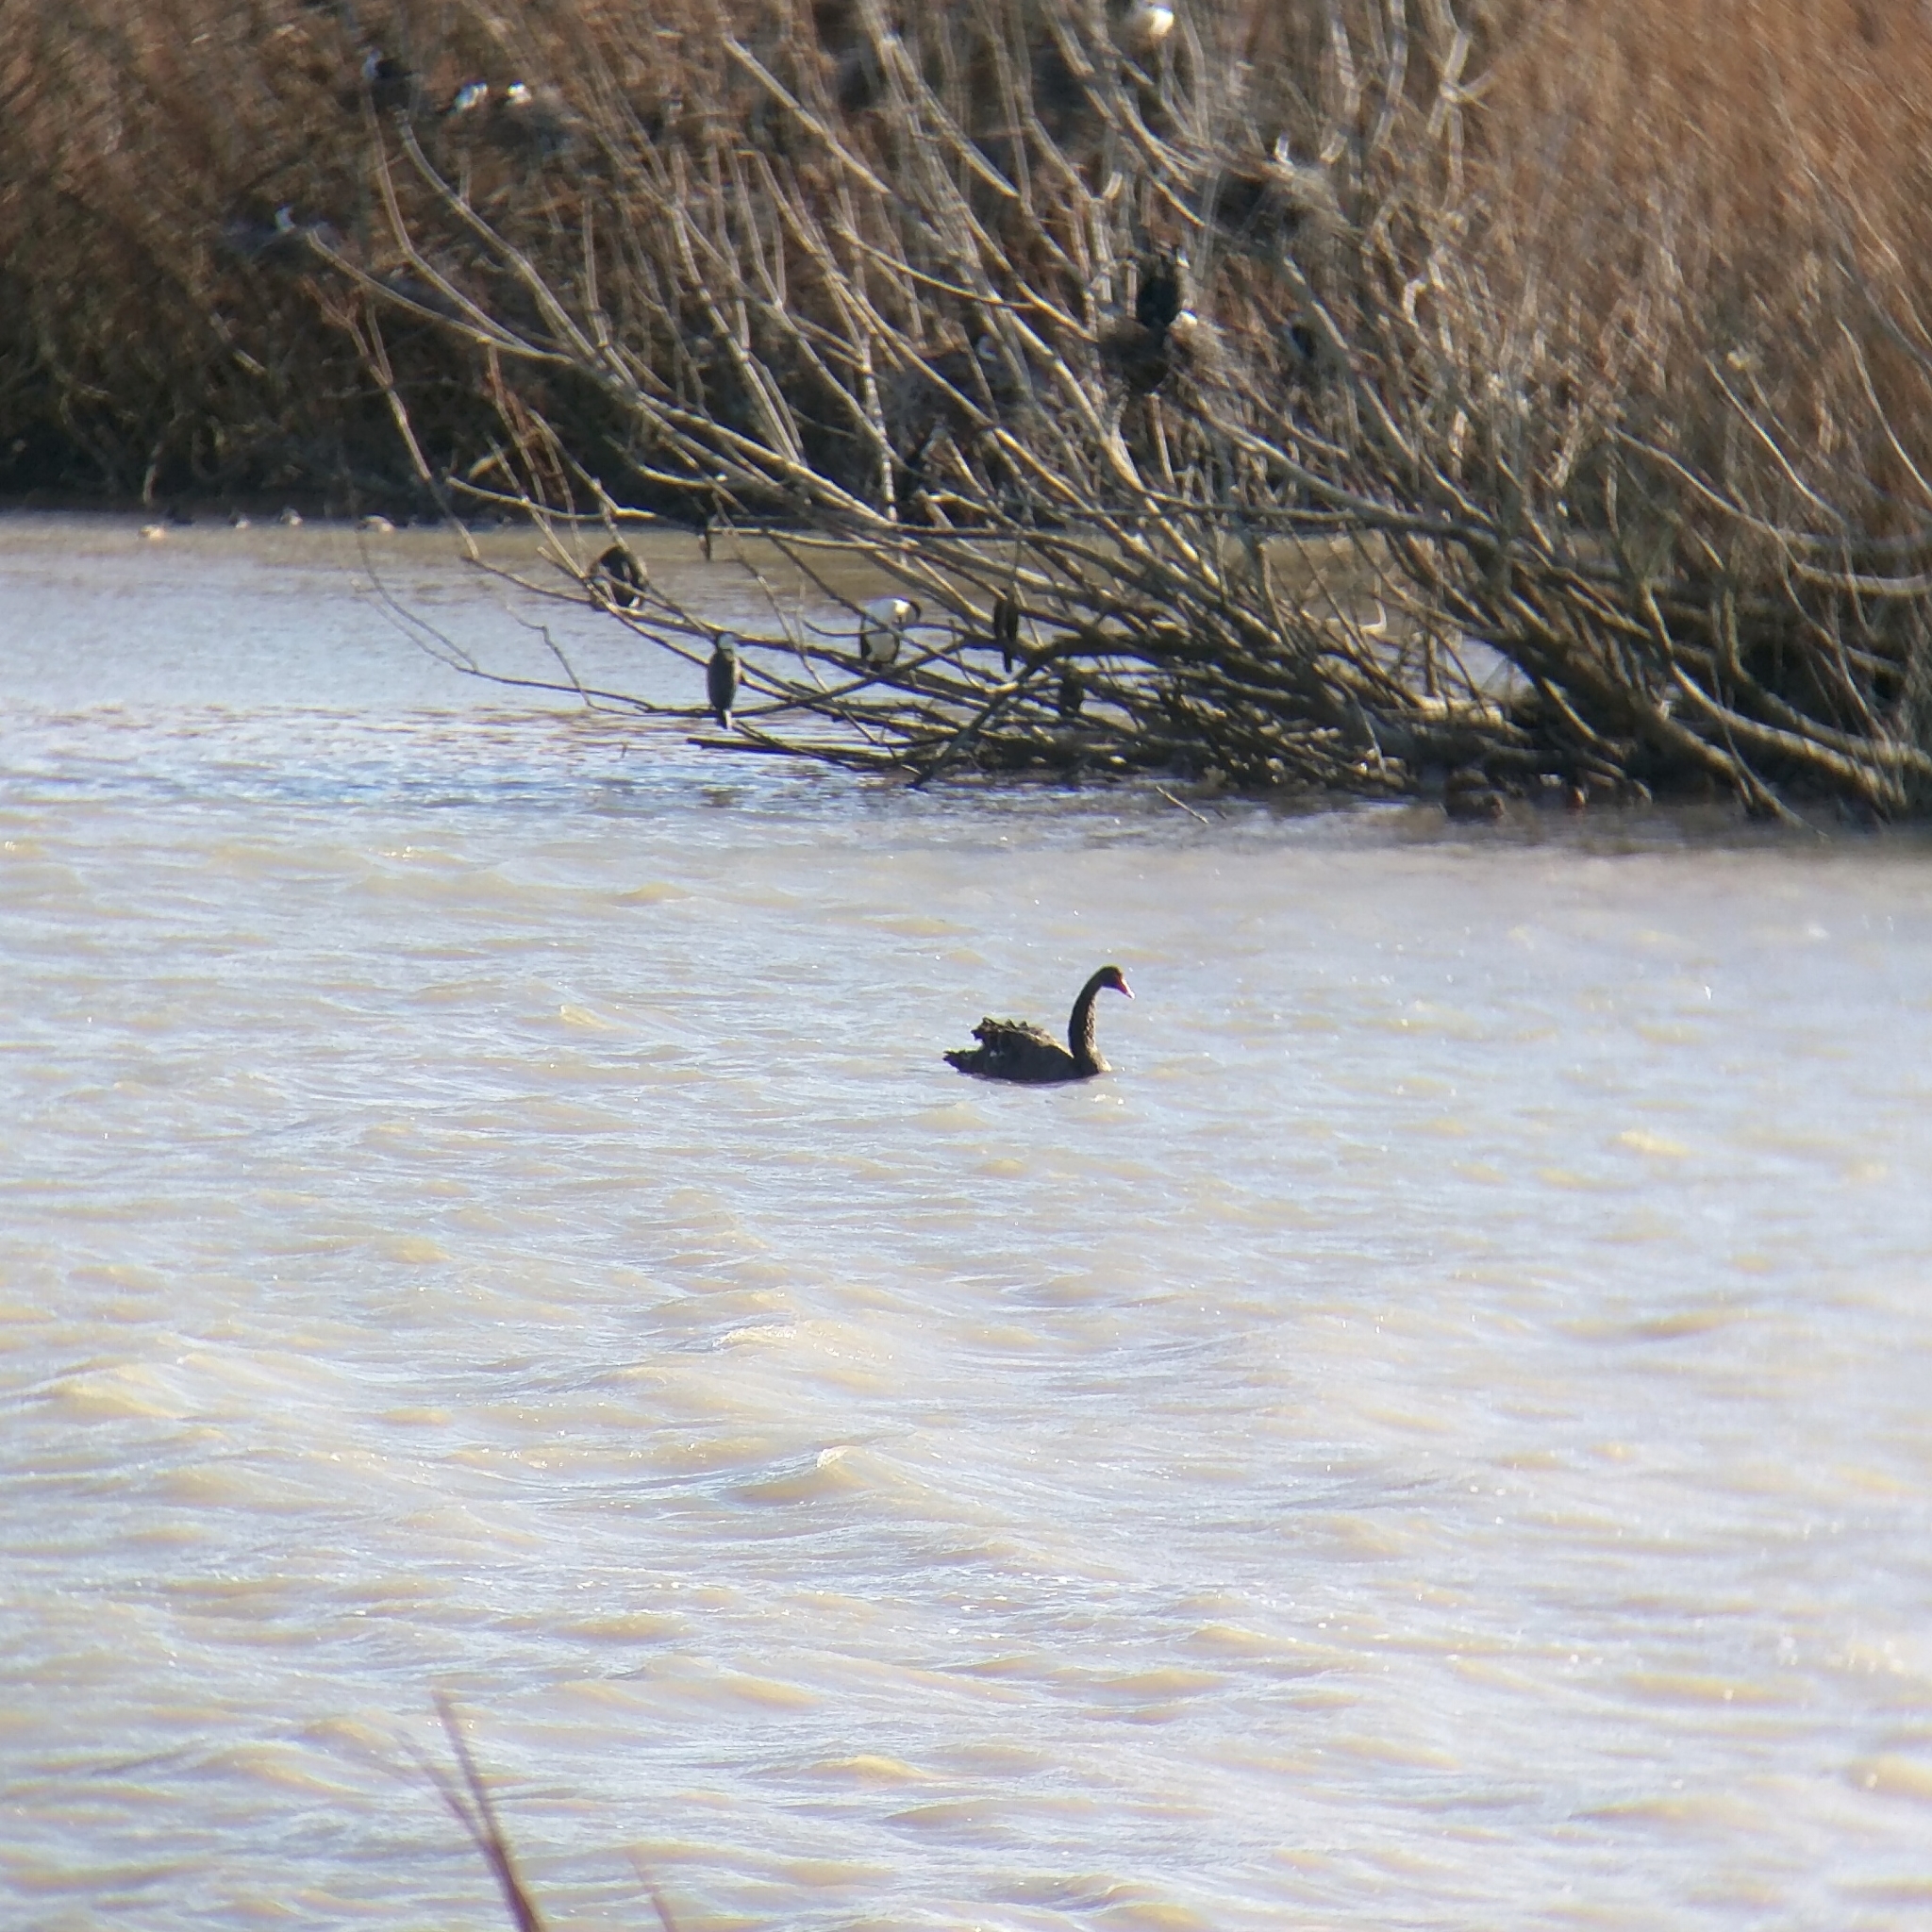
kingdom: Animalia
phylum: Chordata
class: Aves
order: Anseriformes
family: Anatidae
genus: Cygnus
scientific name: Cygnus atratus
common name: Black swan
